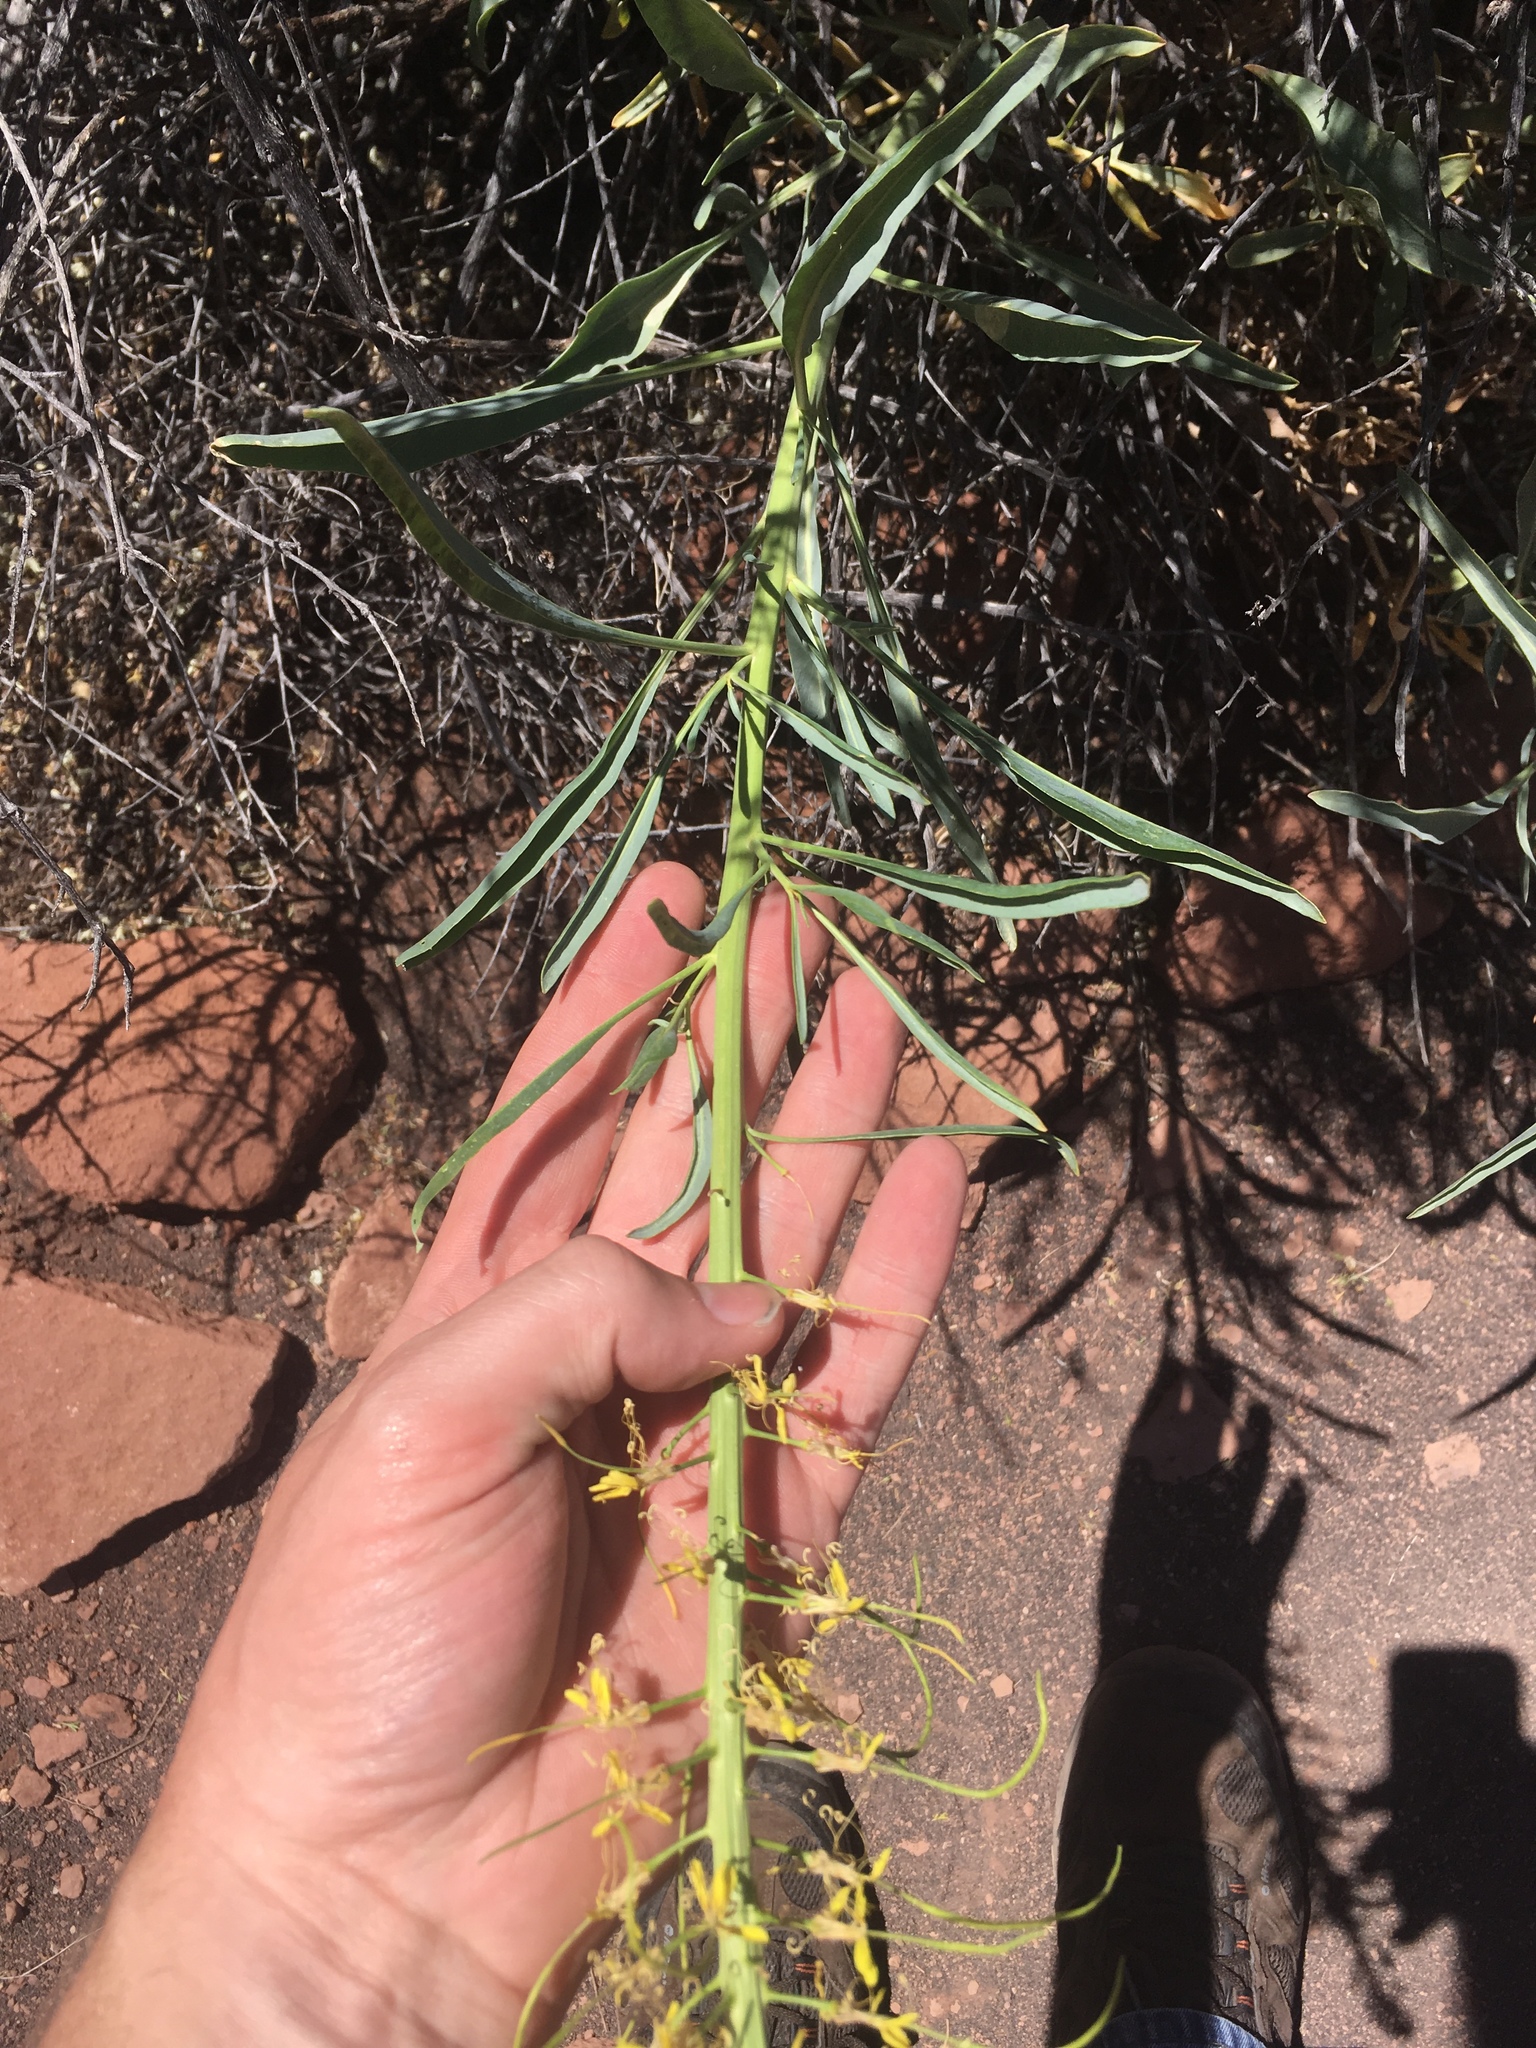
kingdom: Plantae
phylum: Tracheophyta
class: Magnoliopsida
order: Brassicales
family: Brassicaceae
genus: Stanleya
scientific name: Stanleya pinnata
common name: Prince's-plume
